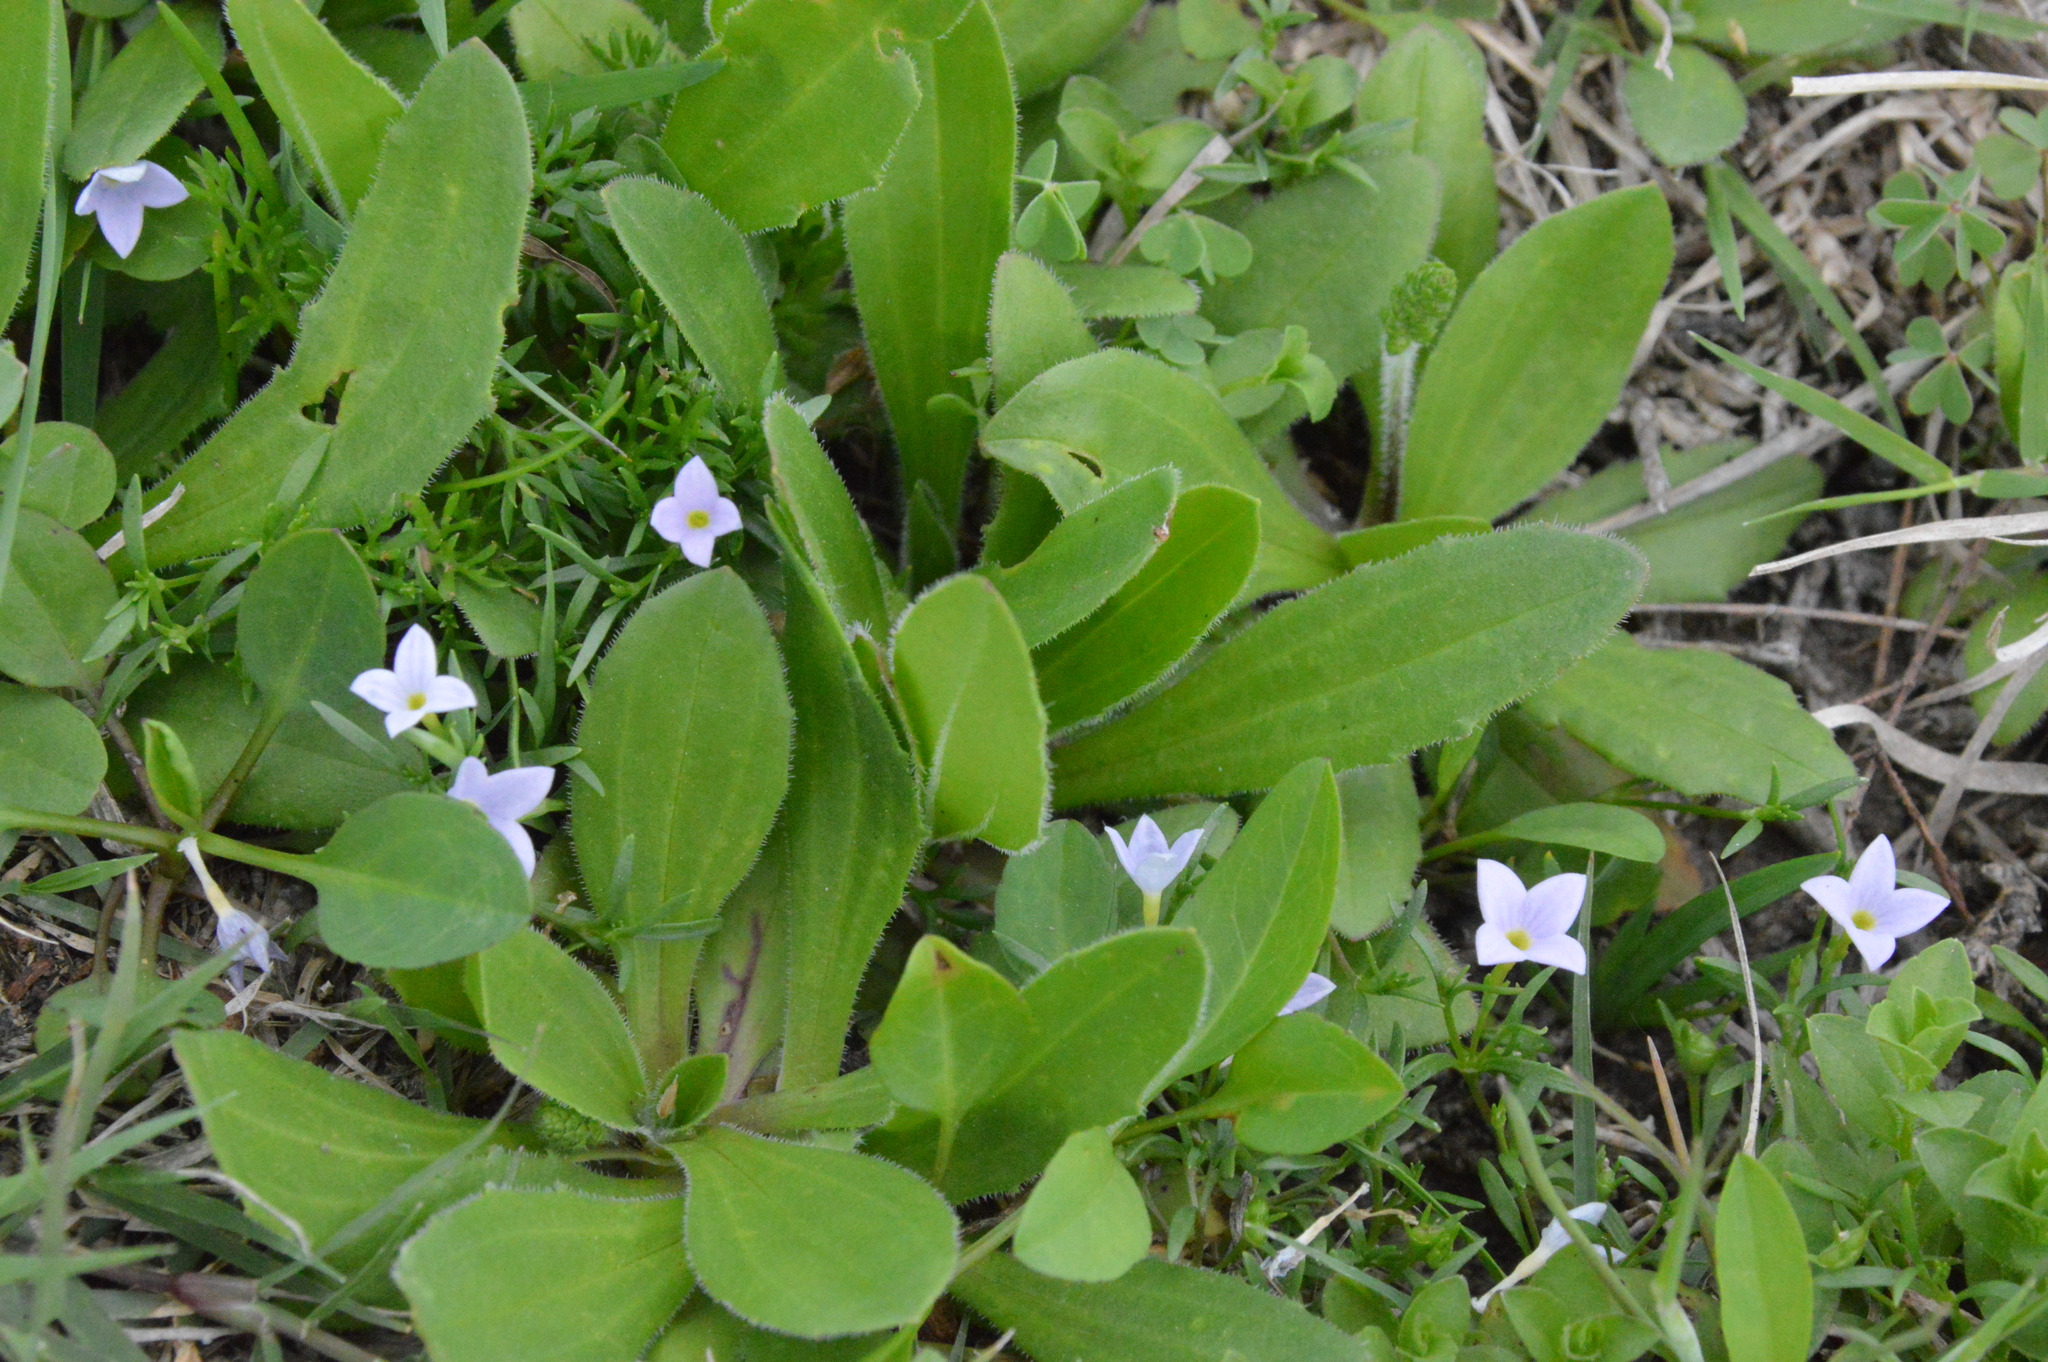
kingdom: Plantae
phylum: Tracheophyta
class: Magnoliopsida
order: Gentianales
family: Rubiaceae
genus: Houstonia
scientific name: Houstonia rosea
